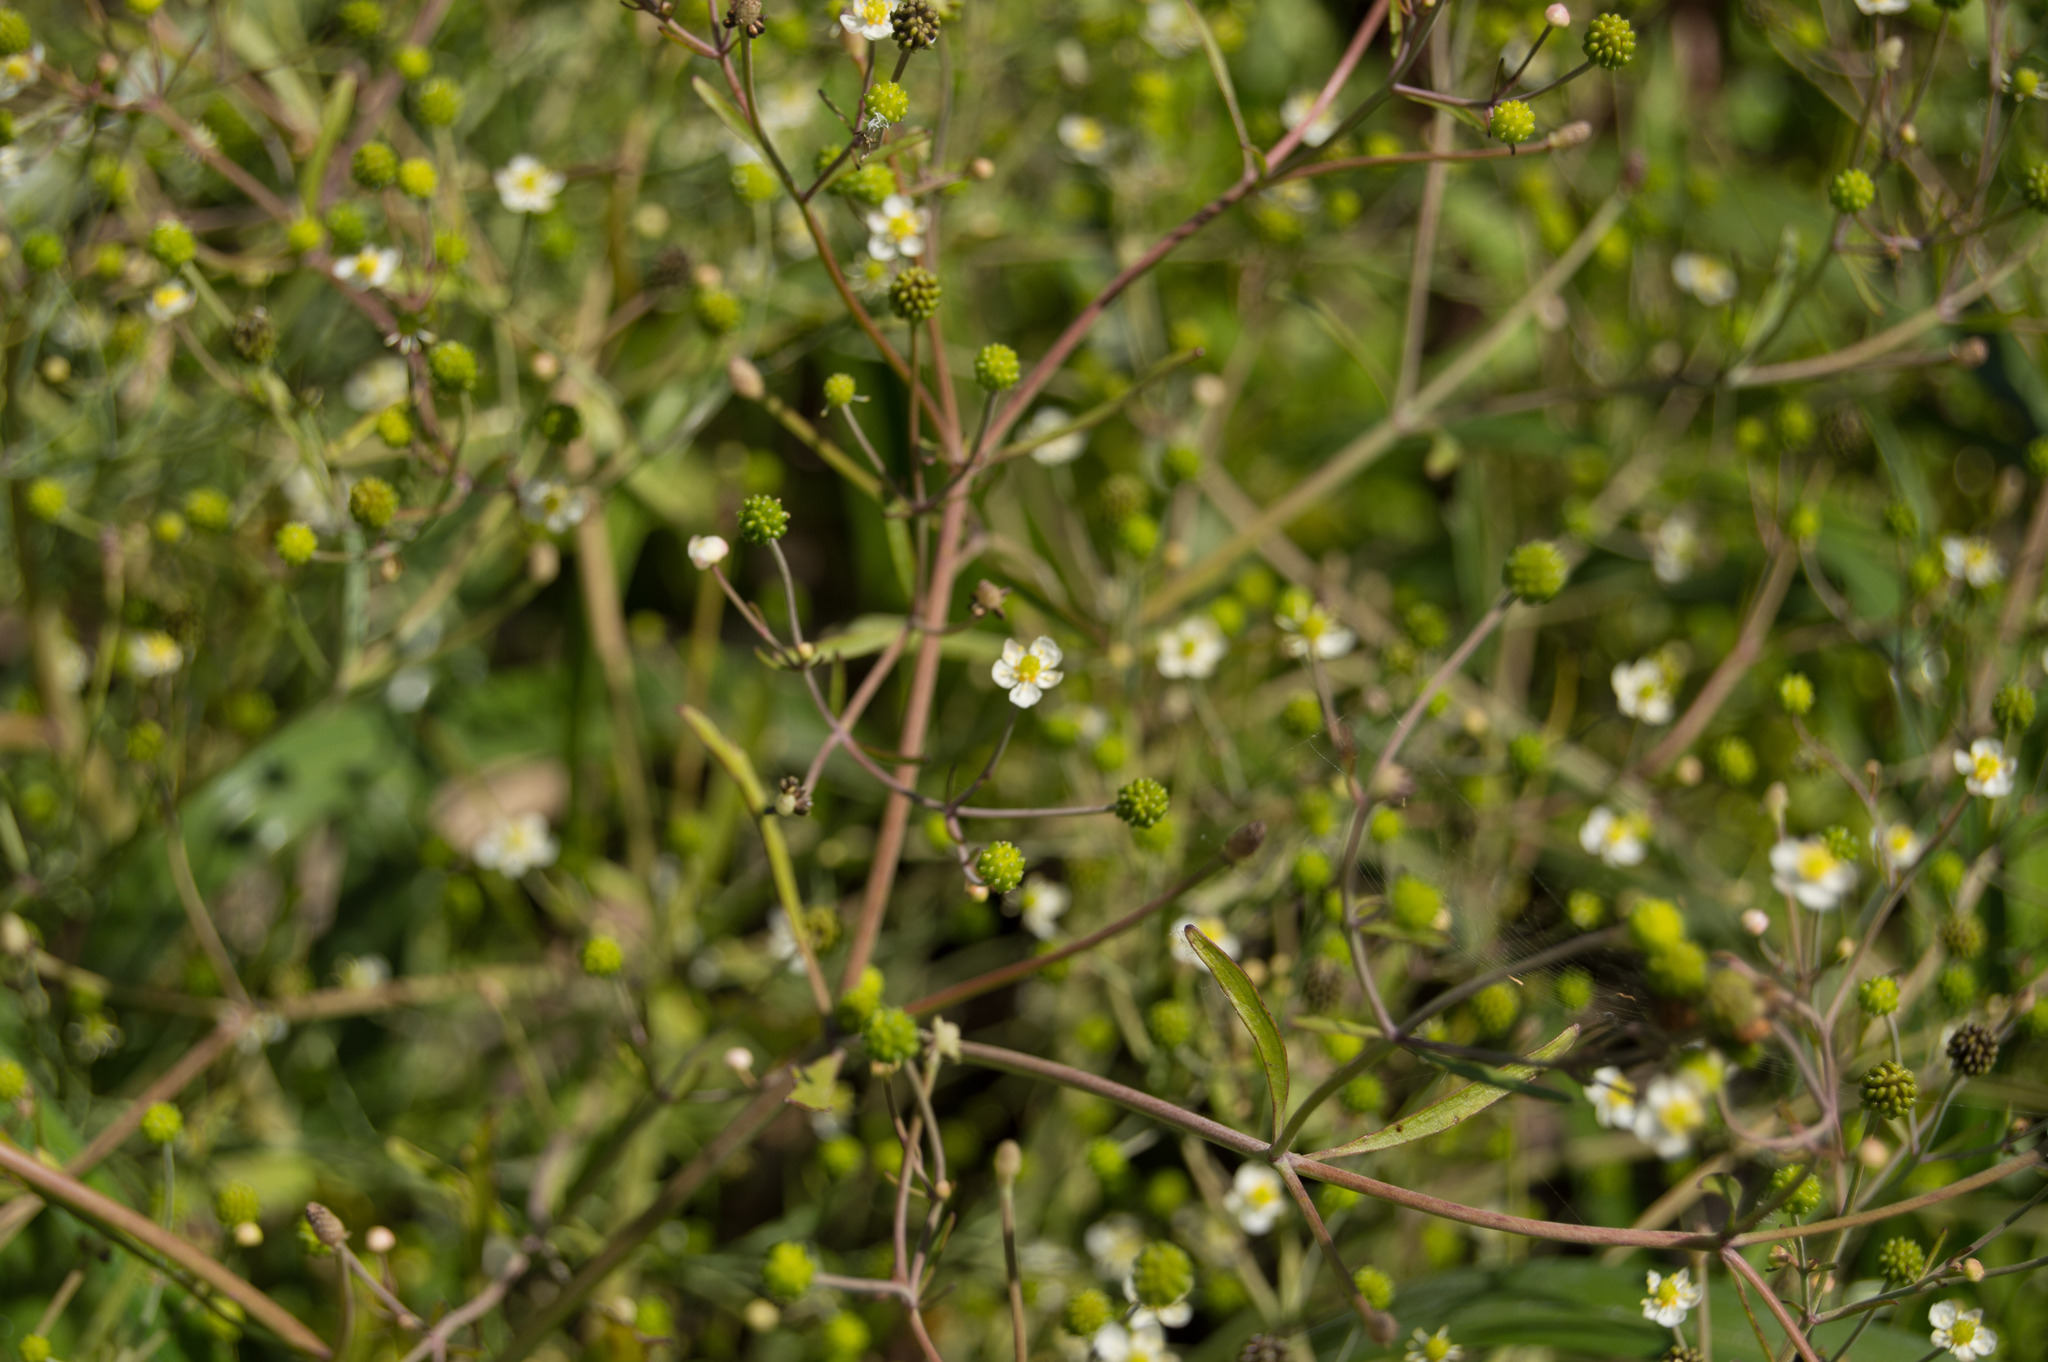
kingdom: Plantae
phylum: Tracheophyta
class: Magnoliopsida
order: Ranunculales
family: Ranunculaceae
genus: Ranunculus
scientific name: Ranunculus apiifolius
